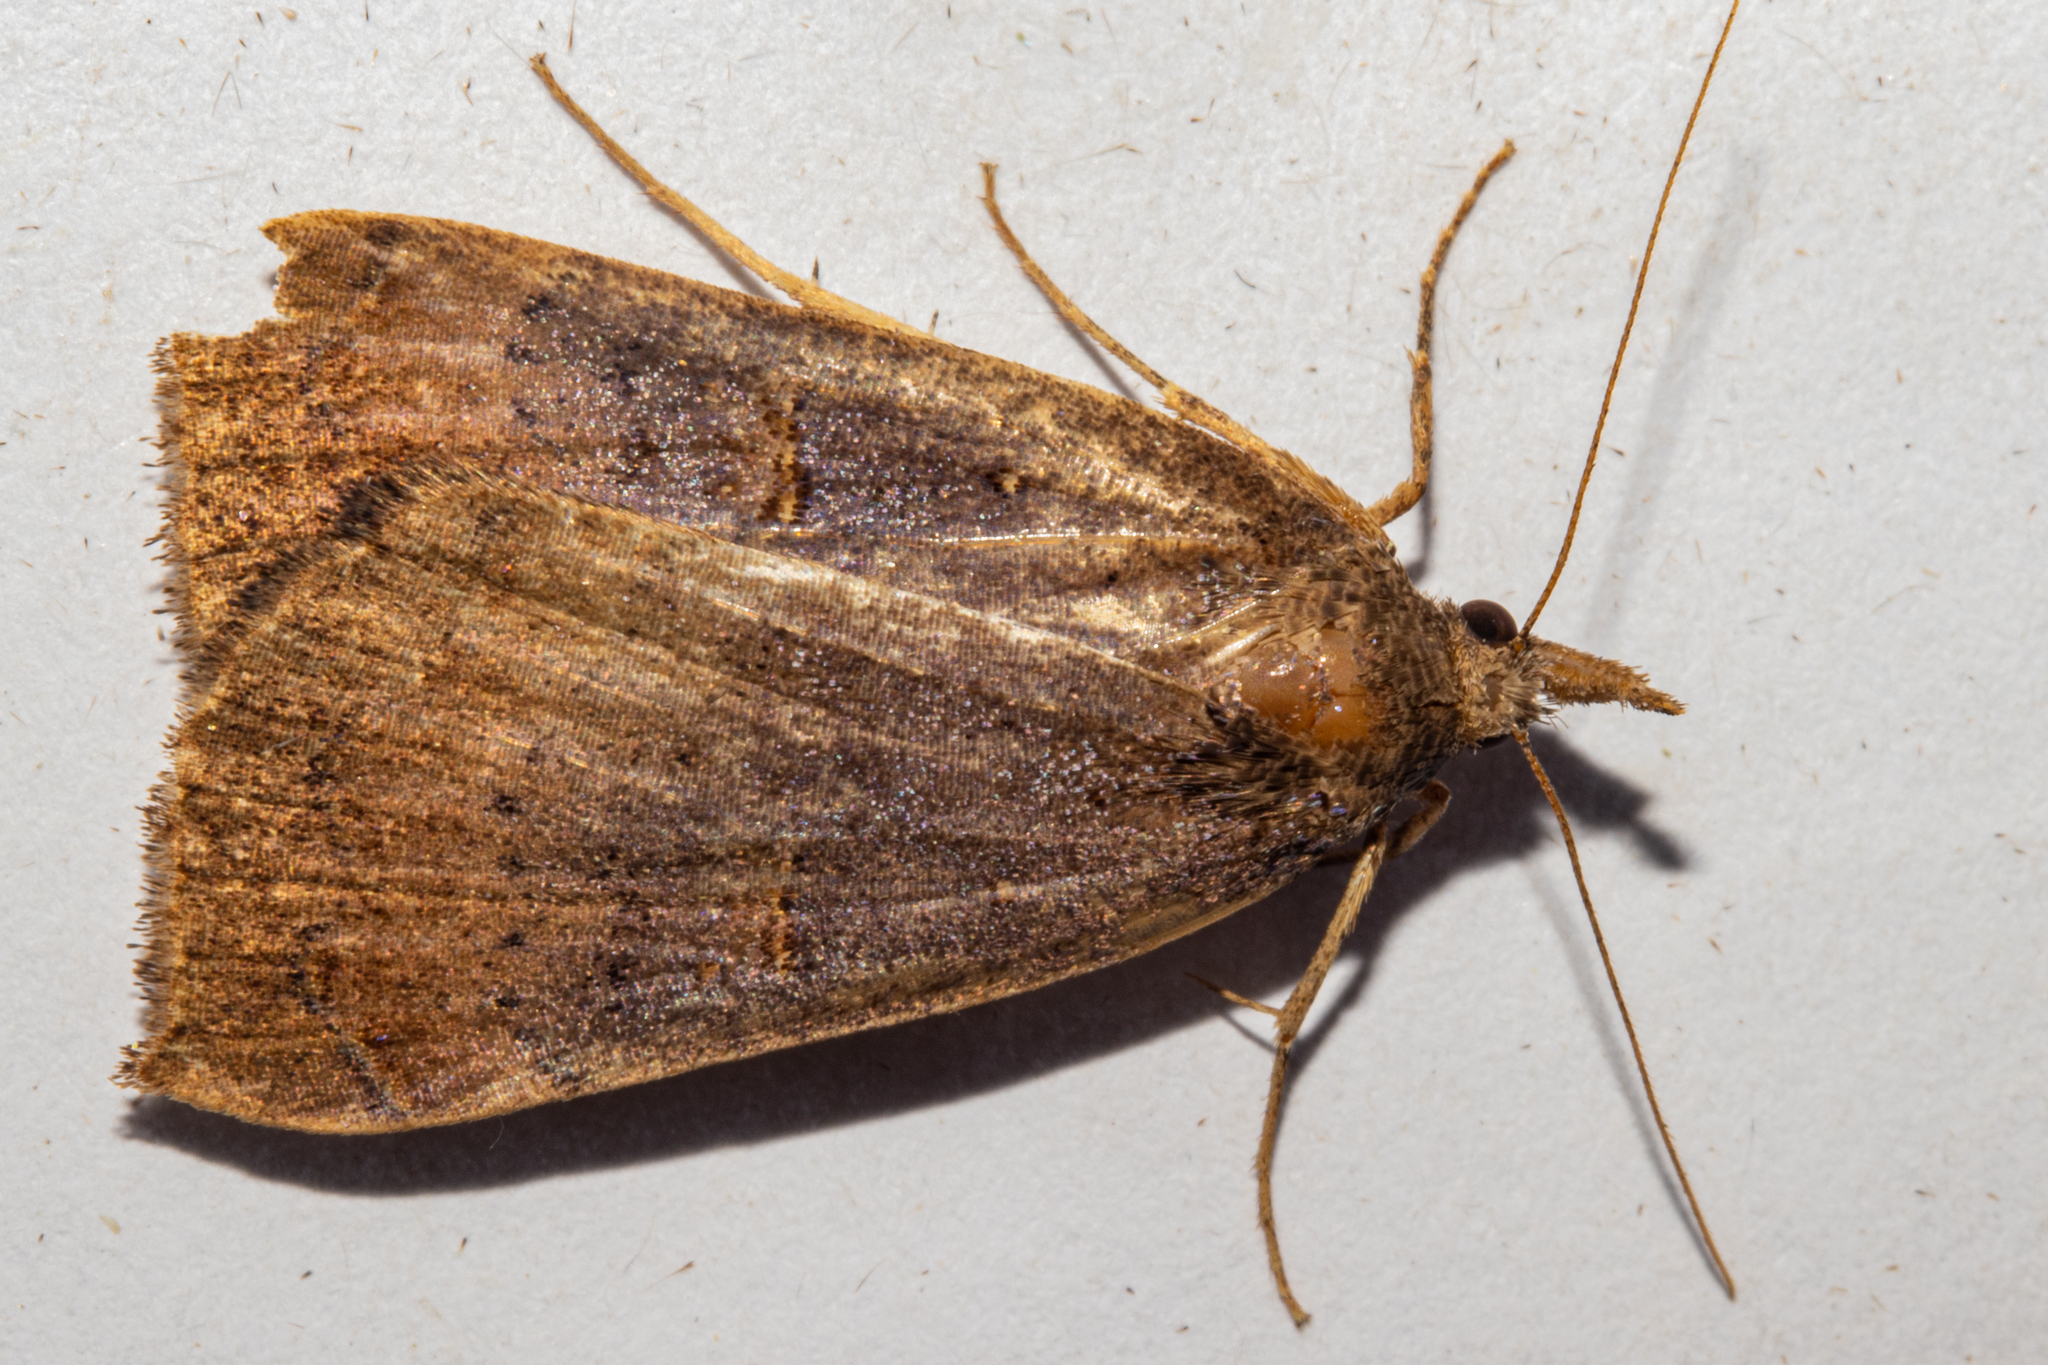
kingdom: Animalia
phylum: Arthropoda
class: Insecta
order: Lepidoptera
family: Erebidae
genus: Rhapsa
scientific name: Rhapsa scotosialis
